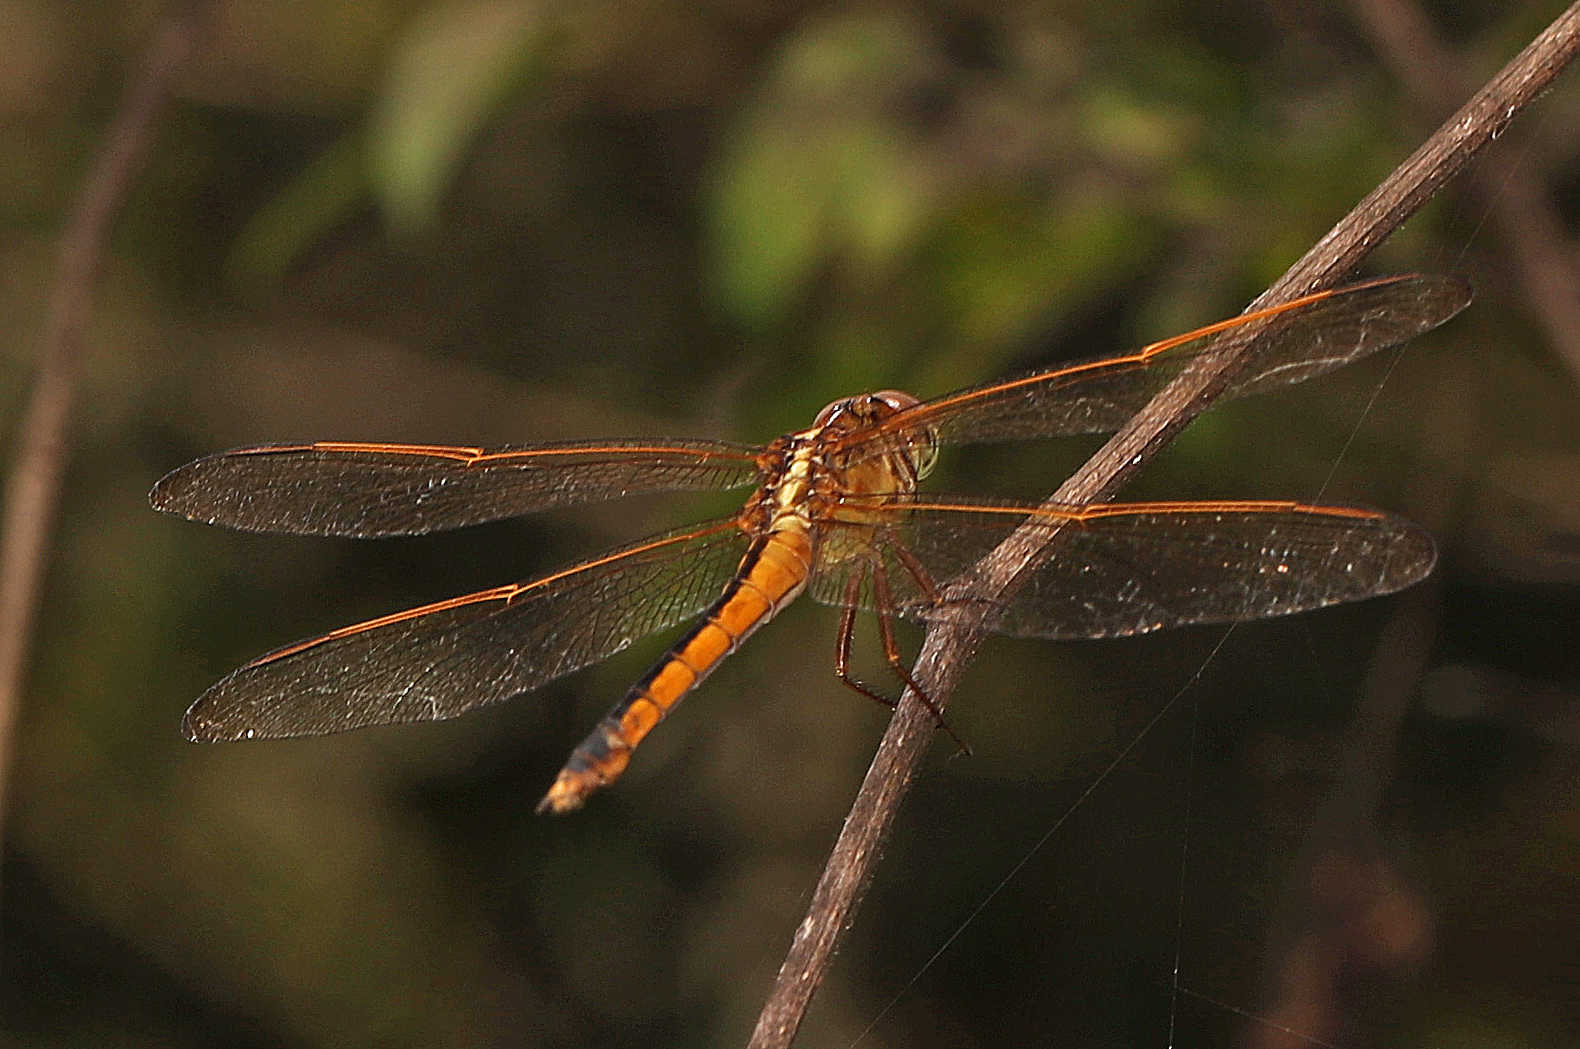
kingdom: Animalia
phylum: Arthropoda
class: Insecta
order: Odonata
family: Libellulidae
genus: Libellula
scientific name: Libellula needhami
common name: Needham's skimmer
